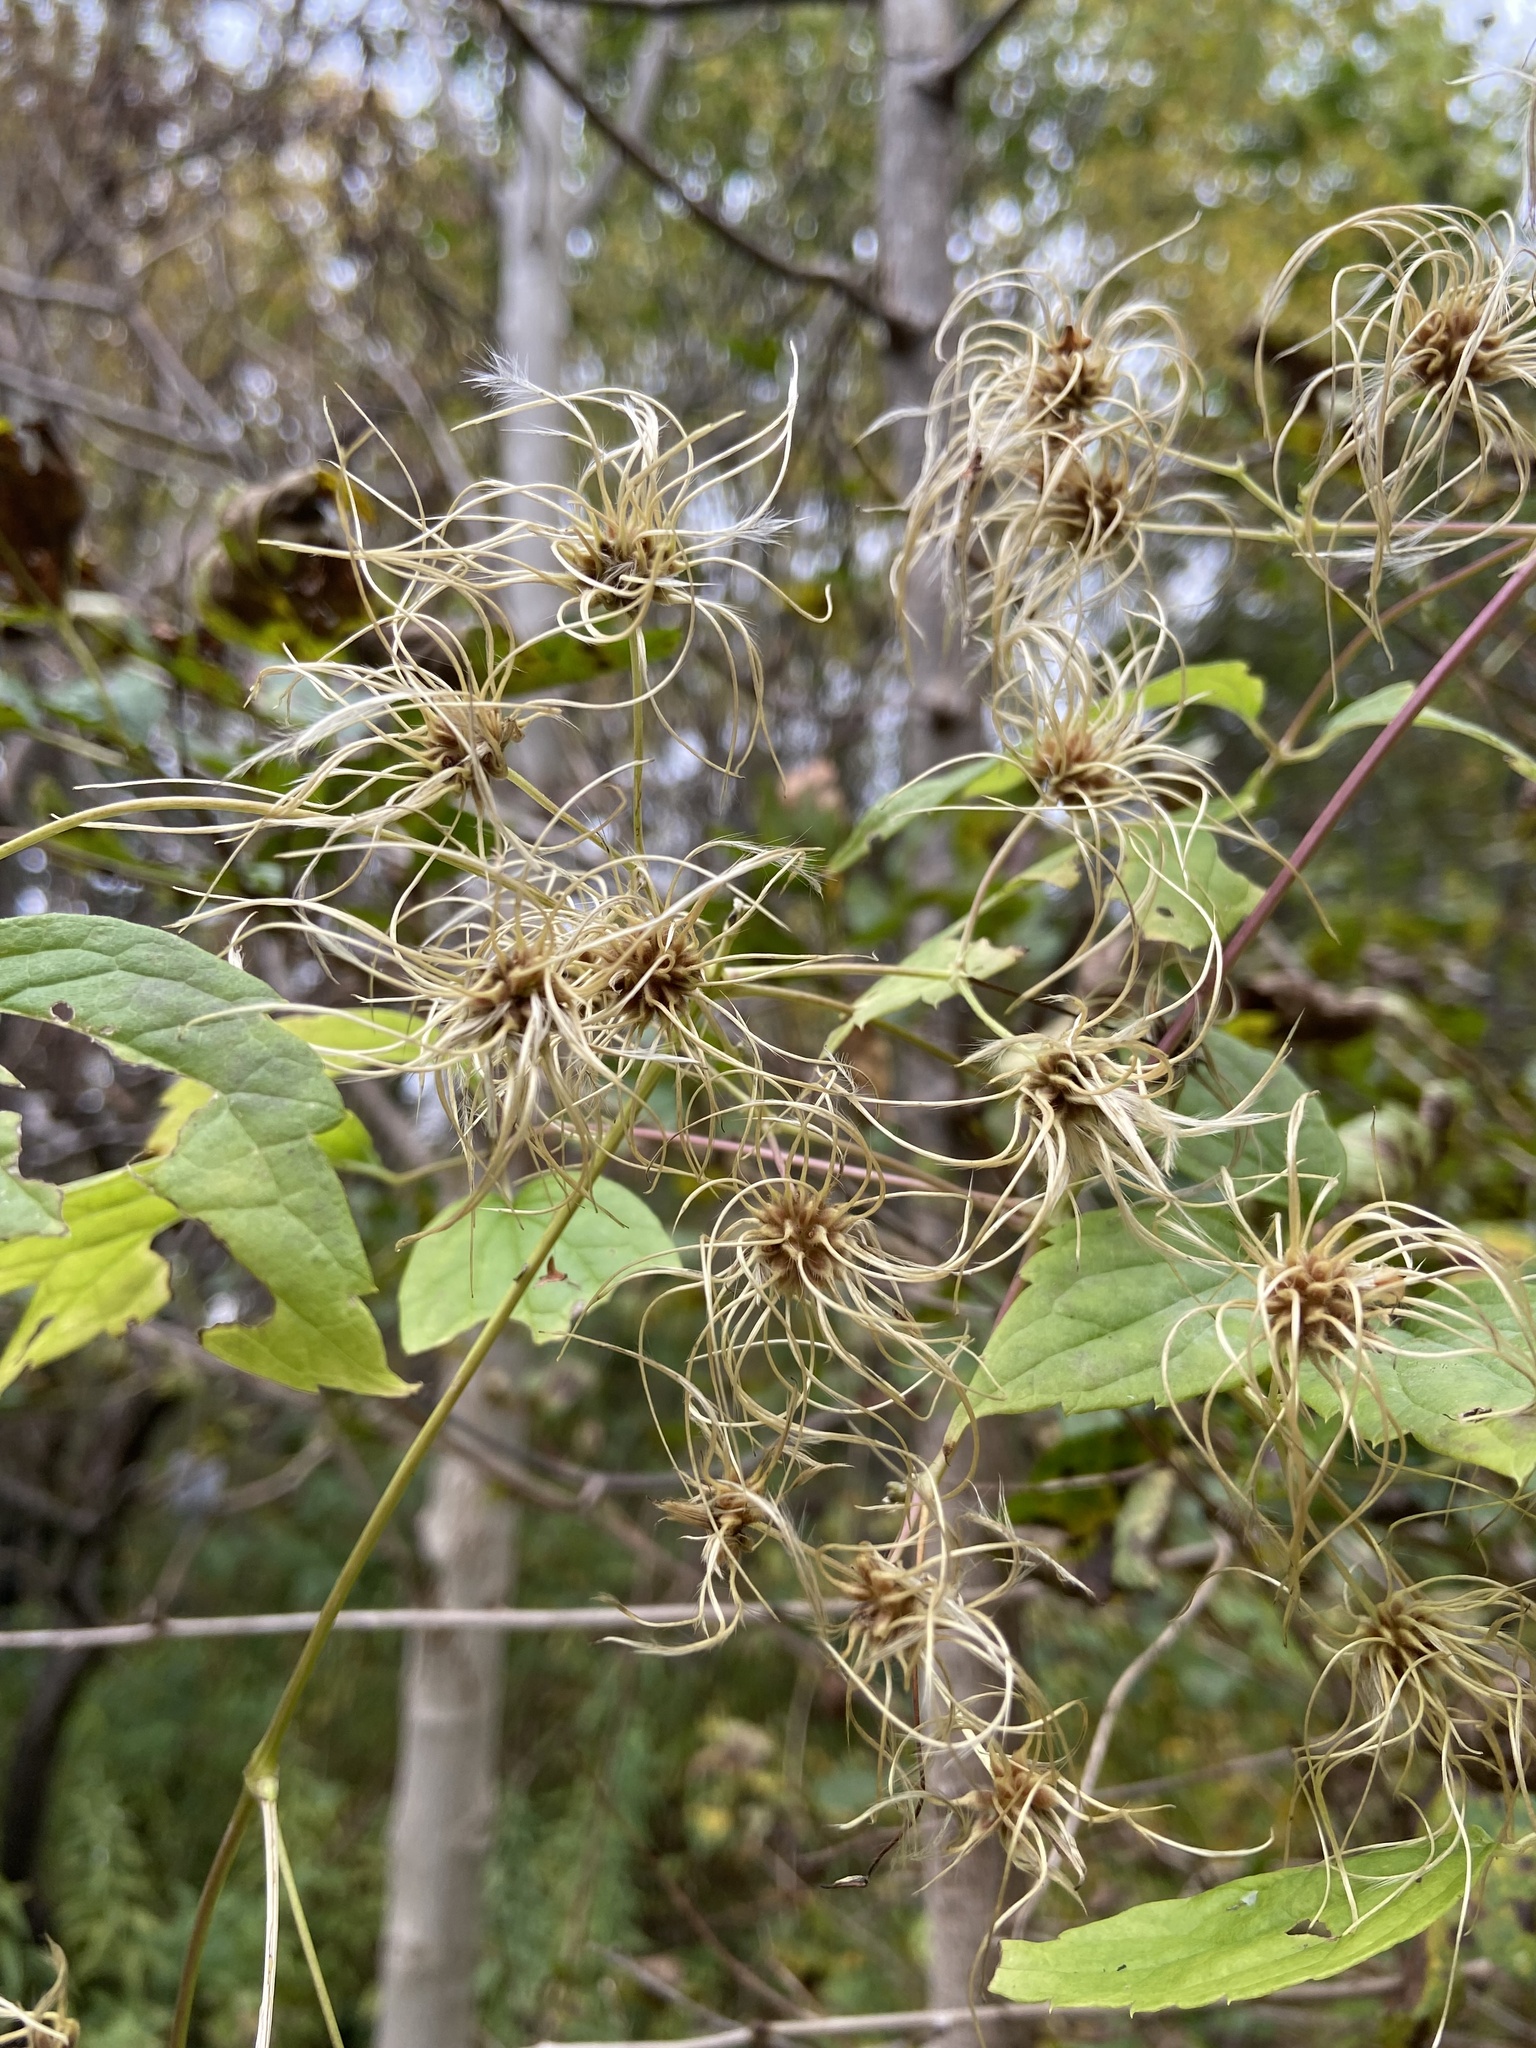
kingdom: Plantae
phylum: Tracheophyta
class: Magnoliopsida
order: Ranunculales
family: Ranunculaceae
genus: Clematis
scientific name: Clematis virginiana
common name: Virgin's-bower
